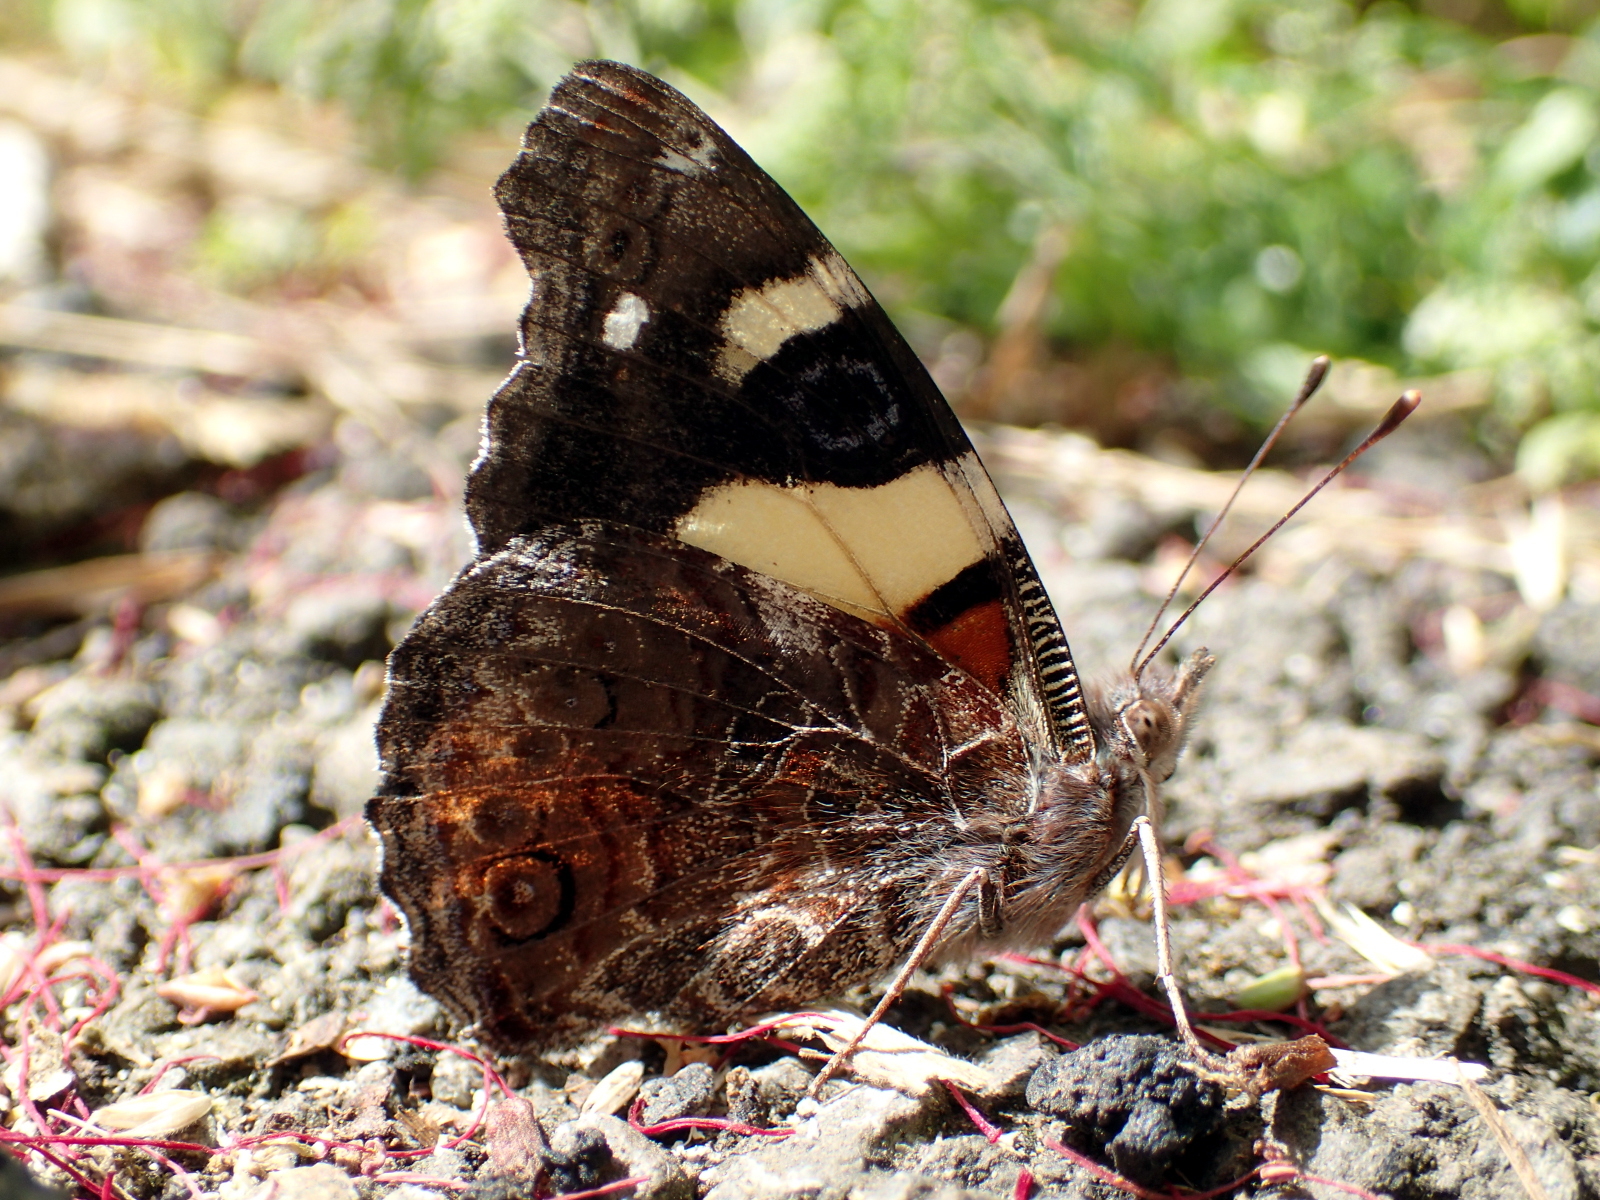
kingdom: Animalia
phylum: Arthropoda
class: Insecta
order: Lepidoptera
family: Nymphalidae
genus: Vanessa
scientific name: Vanessa itea
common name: Yellow admiral
